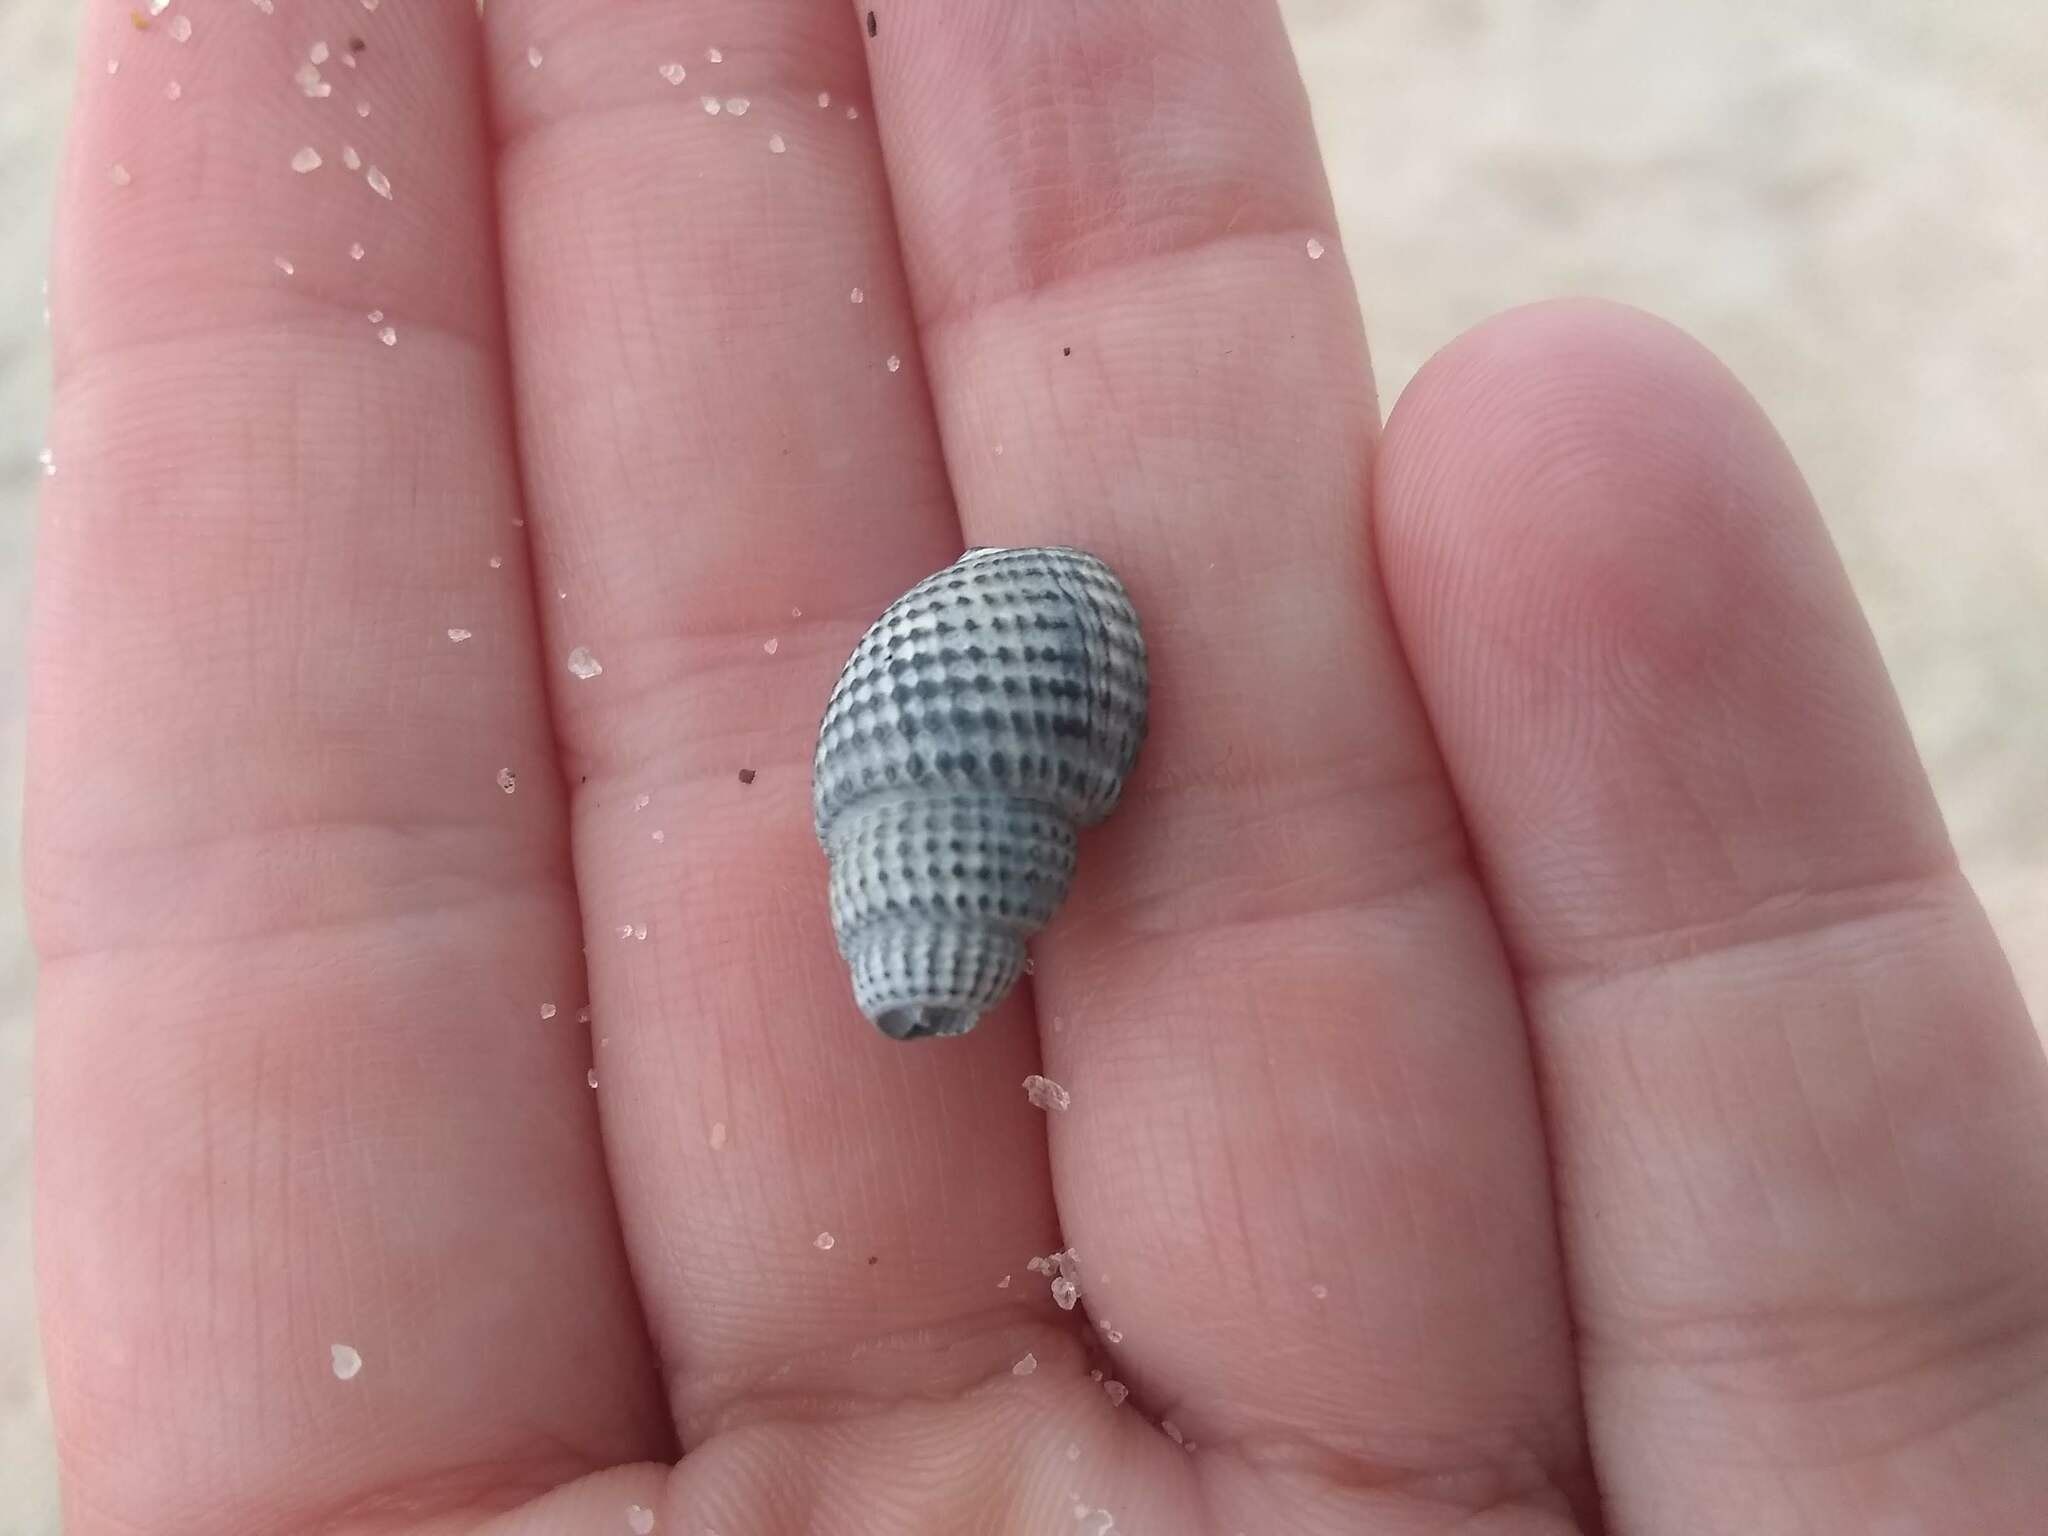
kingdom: Animalia
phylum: Mollusca
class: Gastropoda
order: Neogastropoda
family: Nassariidae
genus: Ilyanassa
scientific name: Ilyanassa trivittata
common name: Three-line mudsnail
